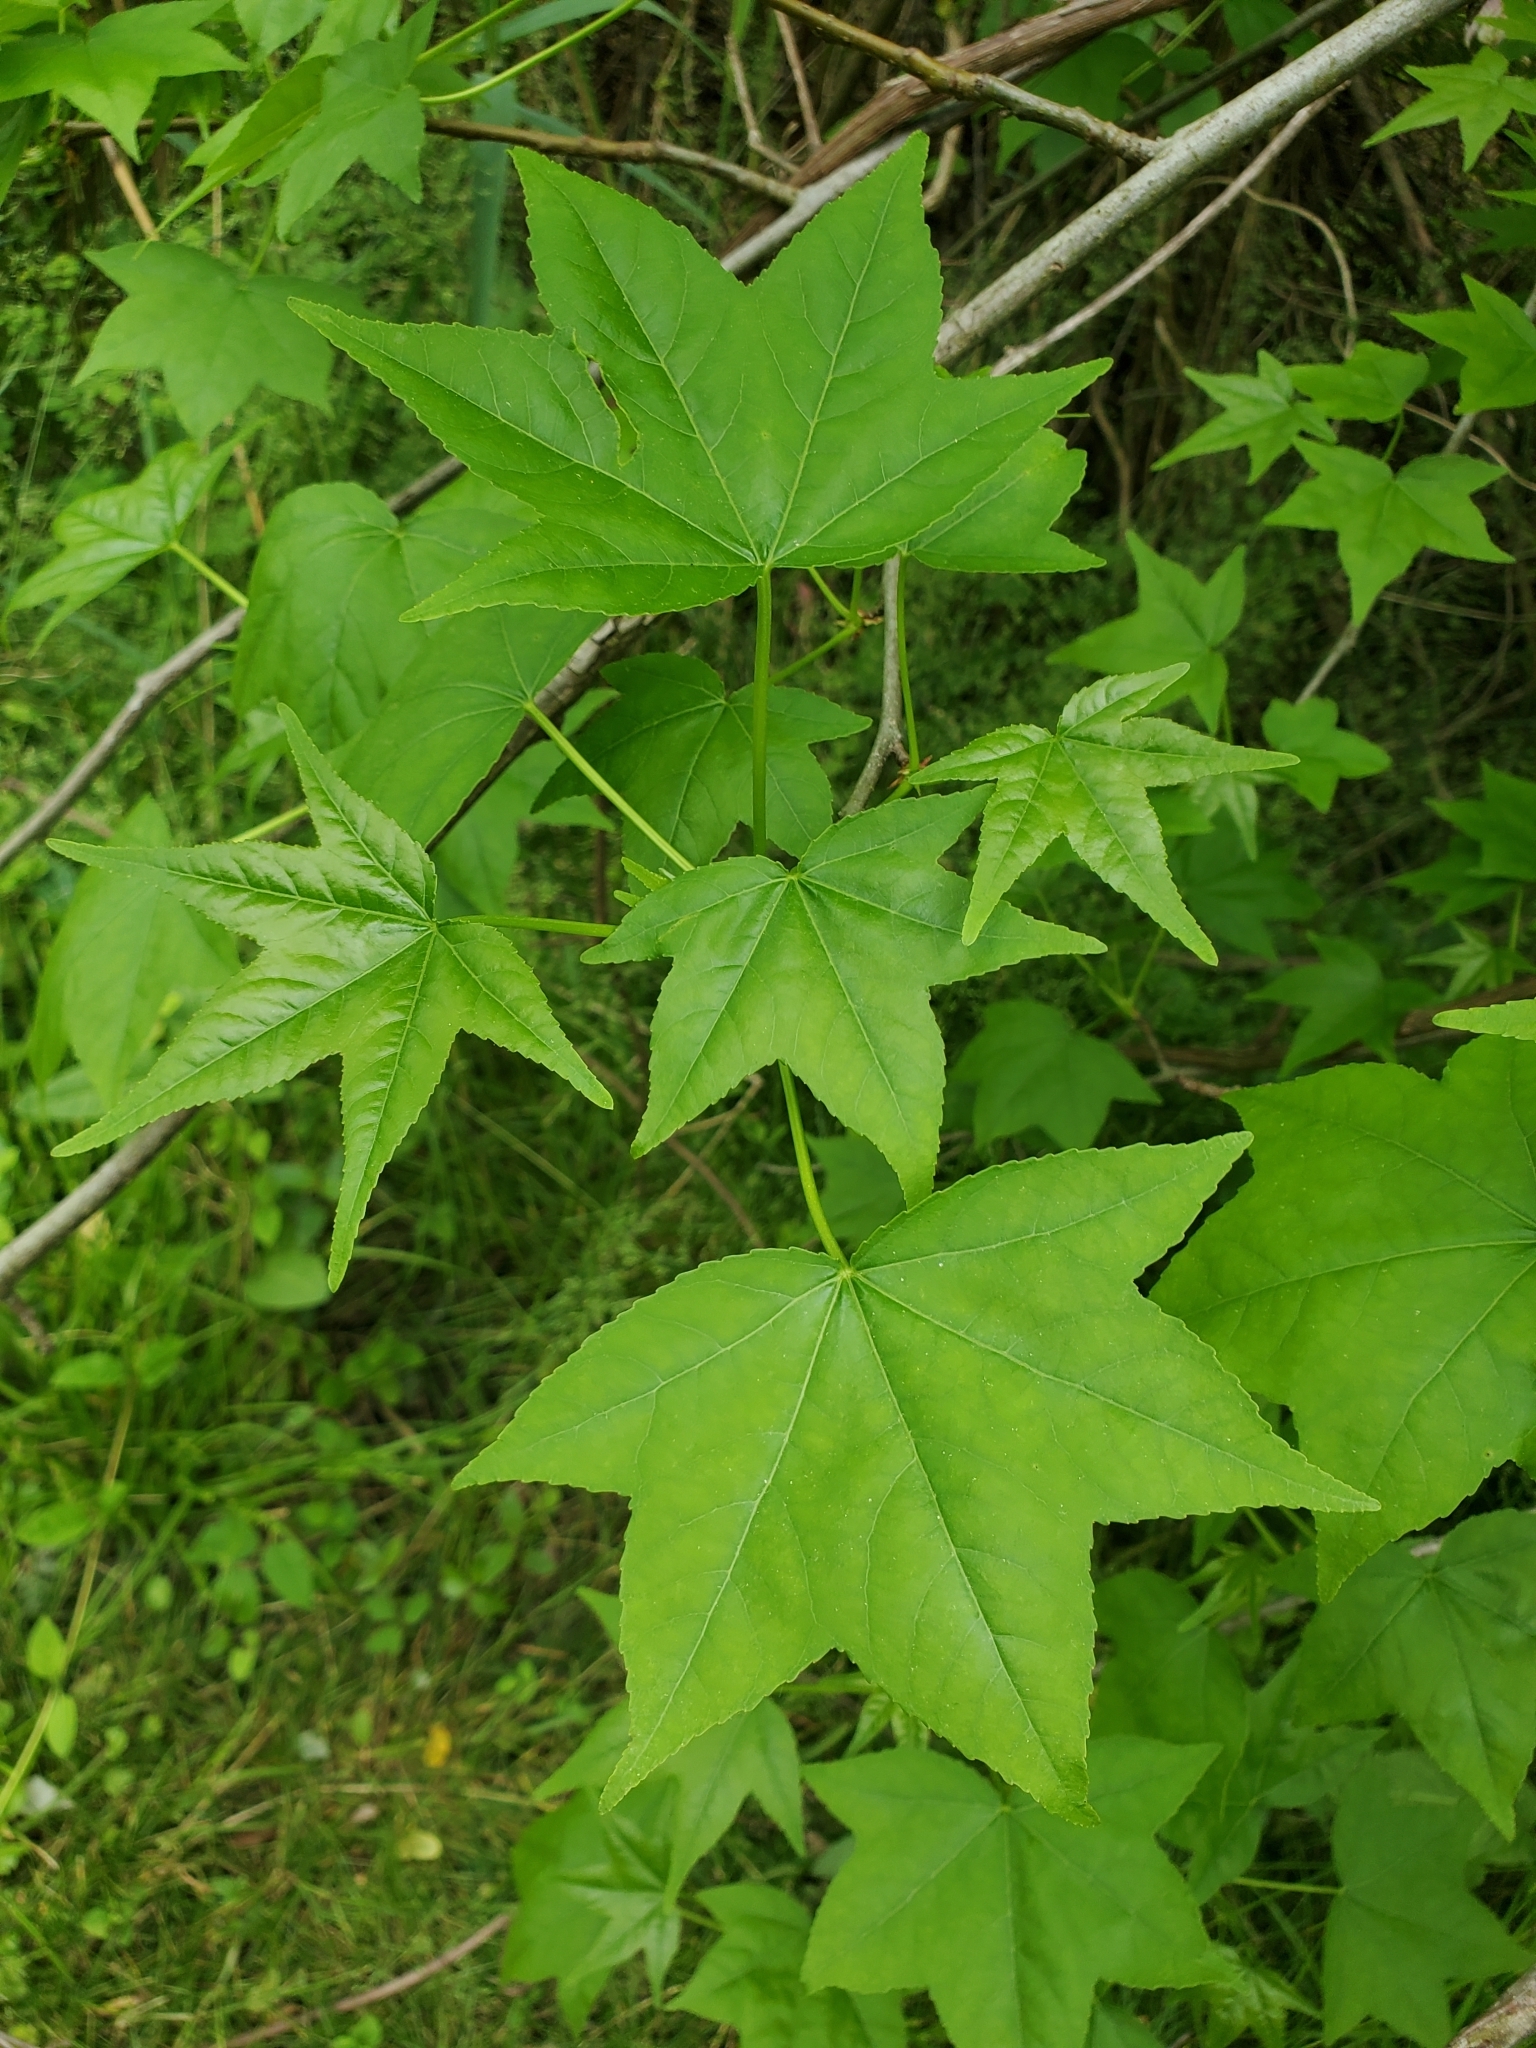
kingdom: Plantae
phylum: Tracheophyta
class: Magnoliopsida
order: Saxifragales
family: Altingiaceae
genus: Liquidambar
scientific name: Liquidambar styraciflua
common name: Sweet gum
